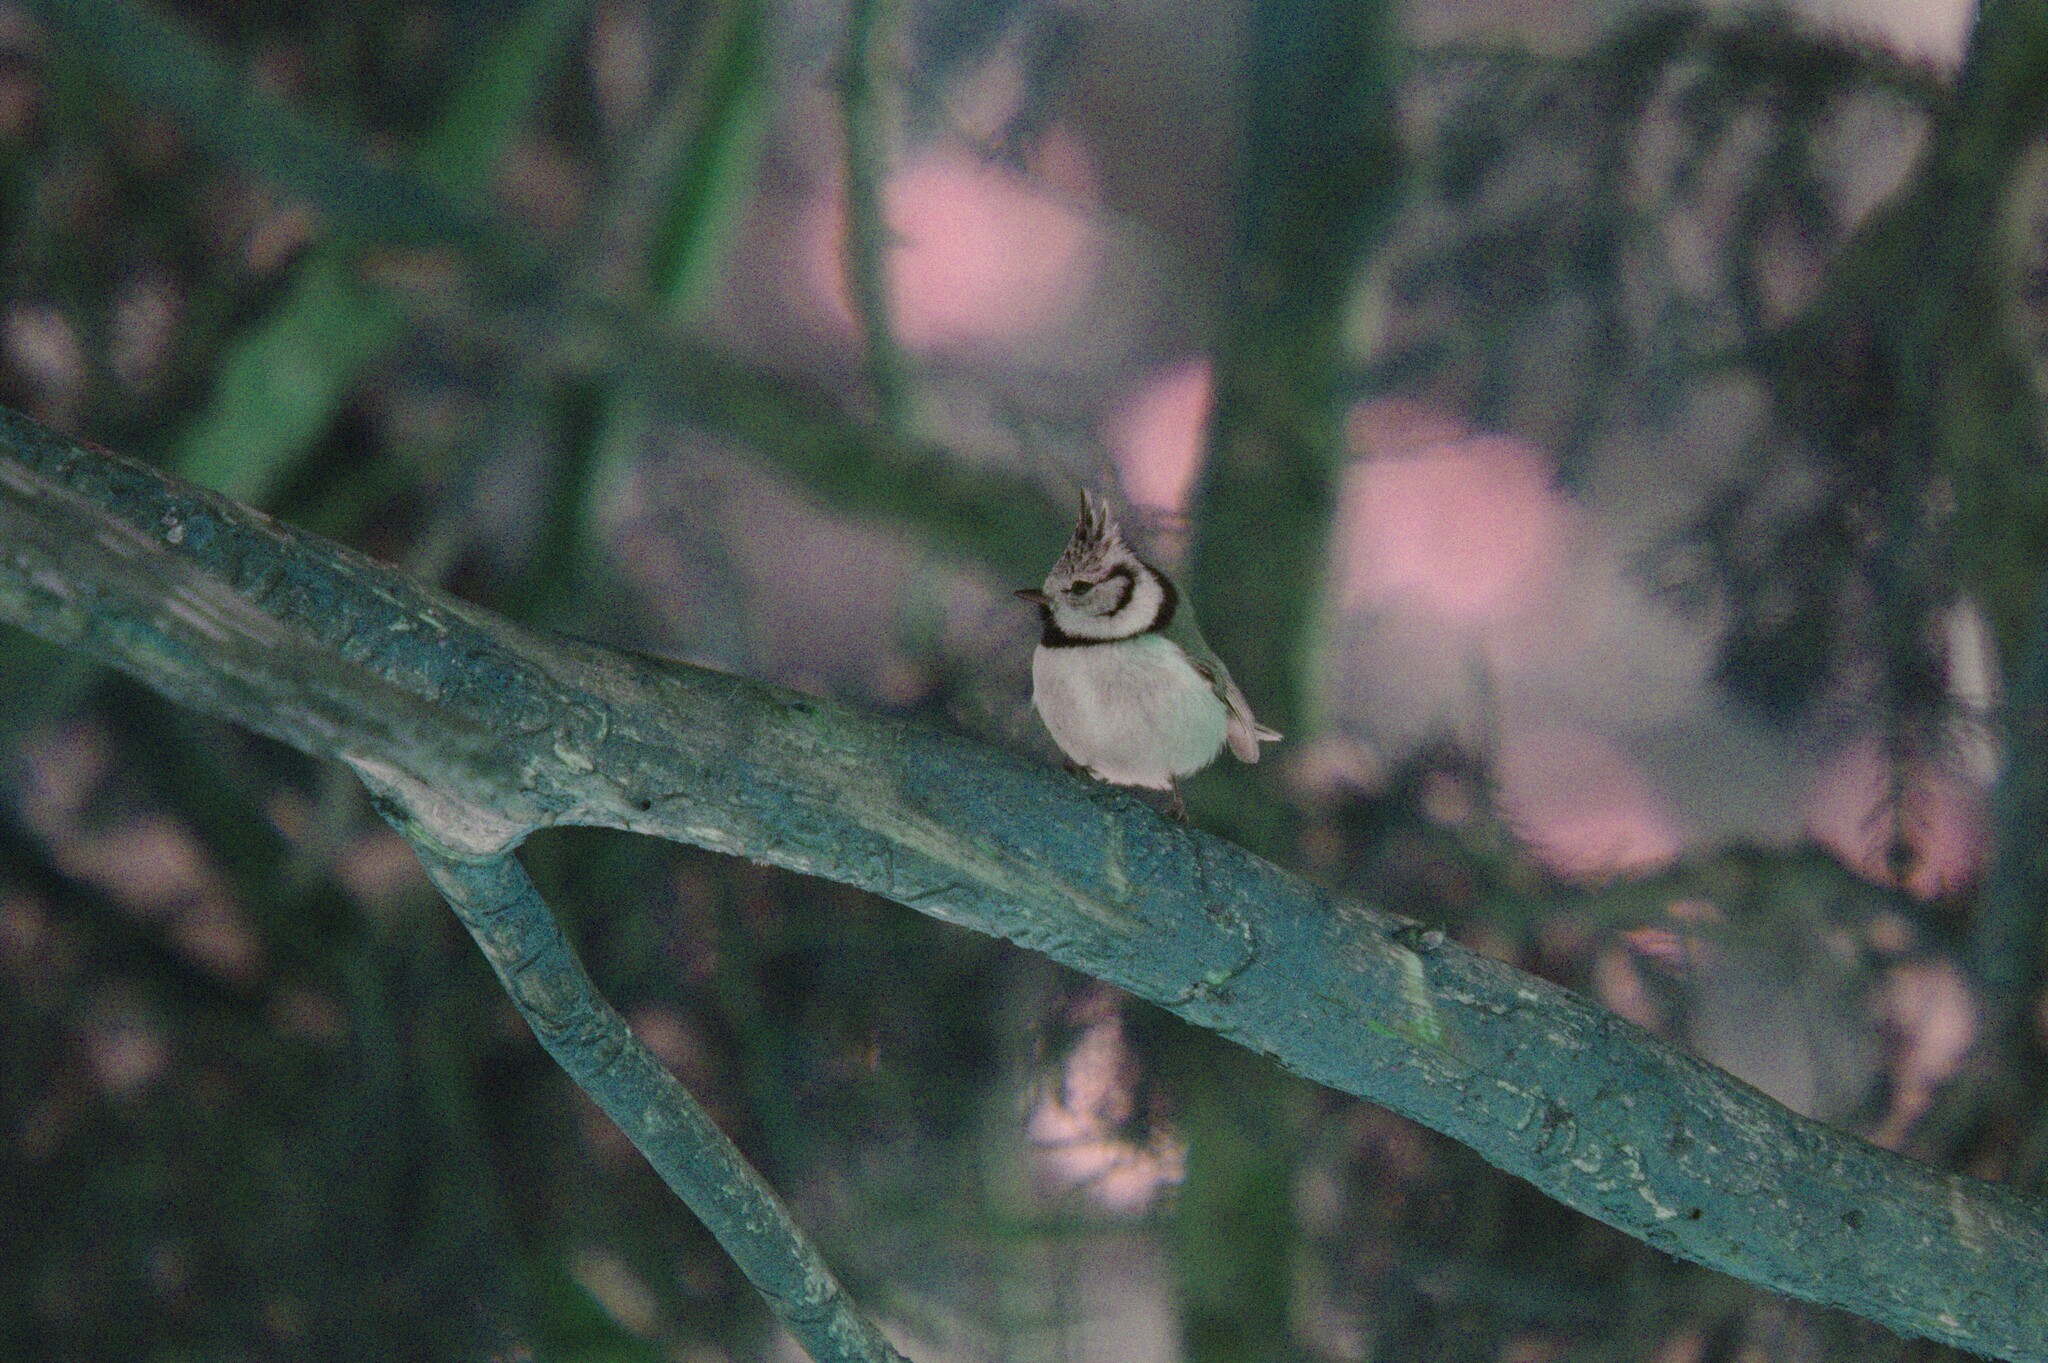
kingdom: Animalia
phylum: Chordata
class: Aves
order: Passeriformes
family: Paridae
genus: Lophophanes
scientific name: Lophophanes cristatus
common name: European crested tit
